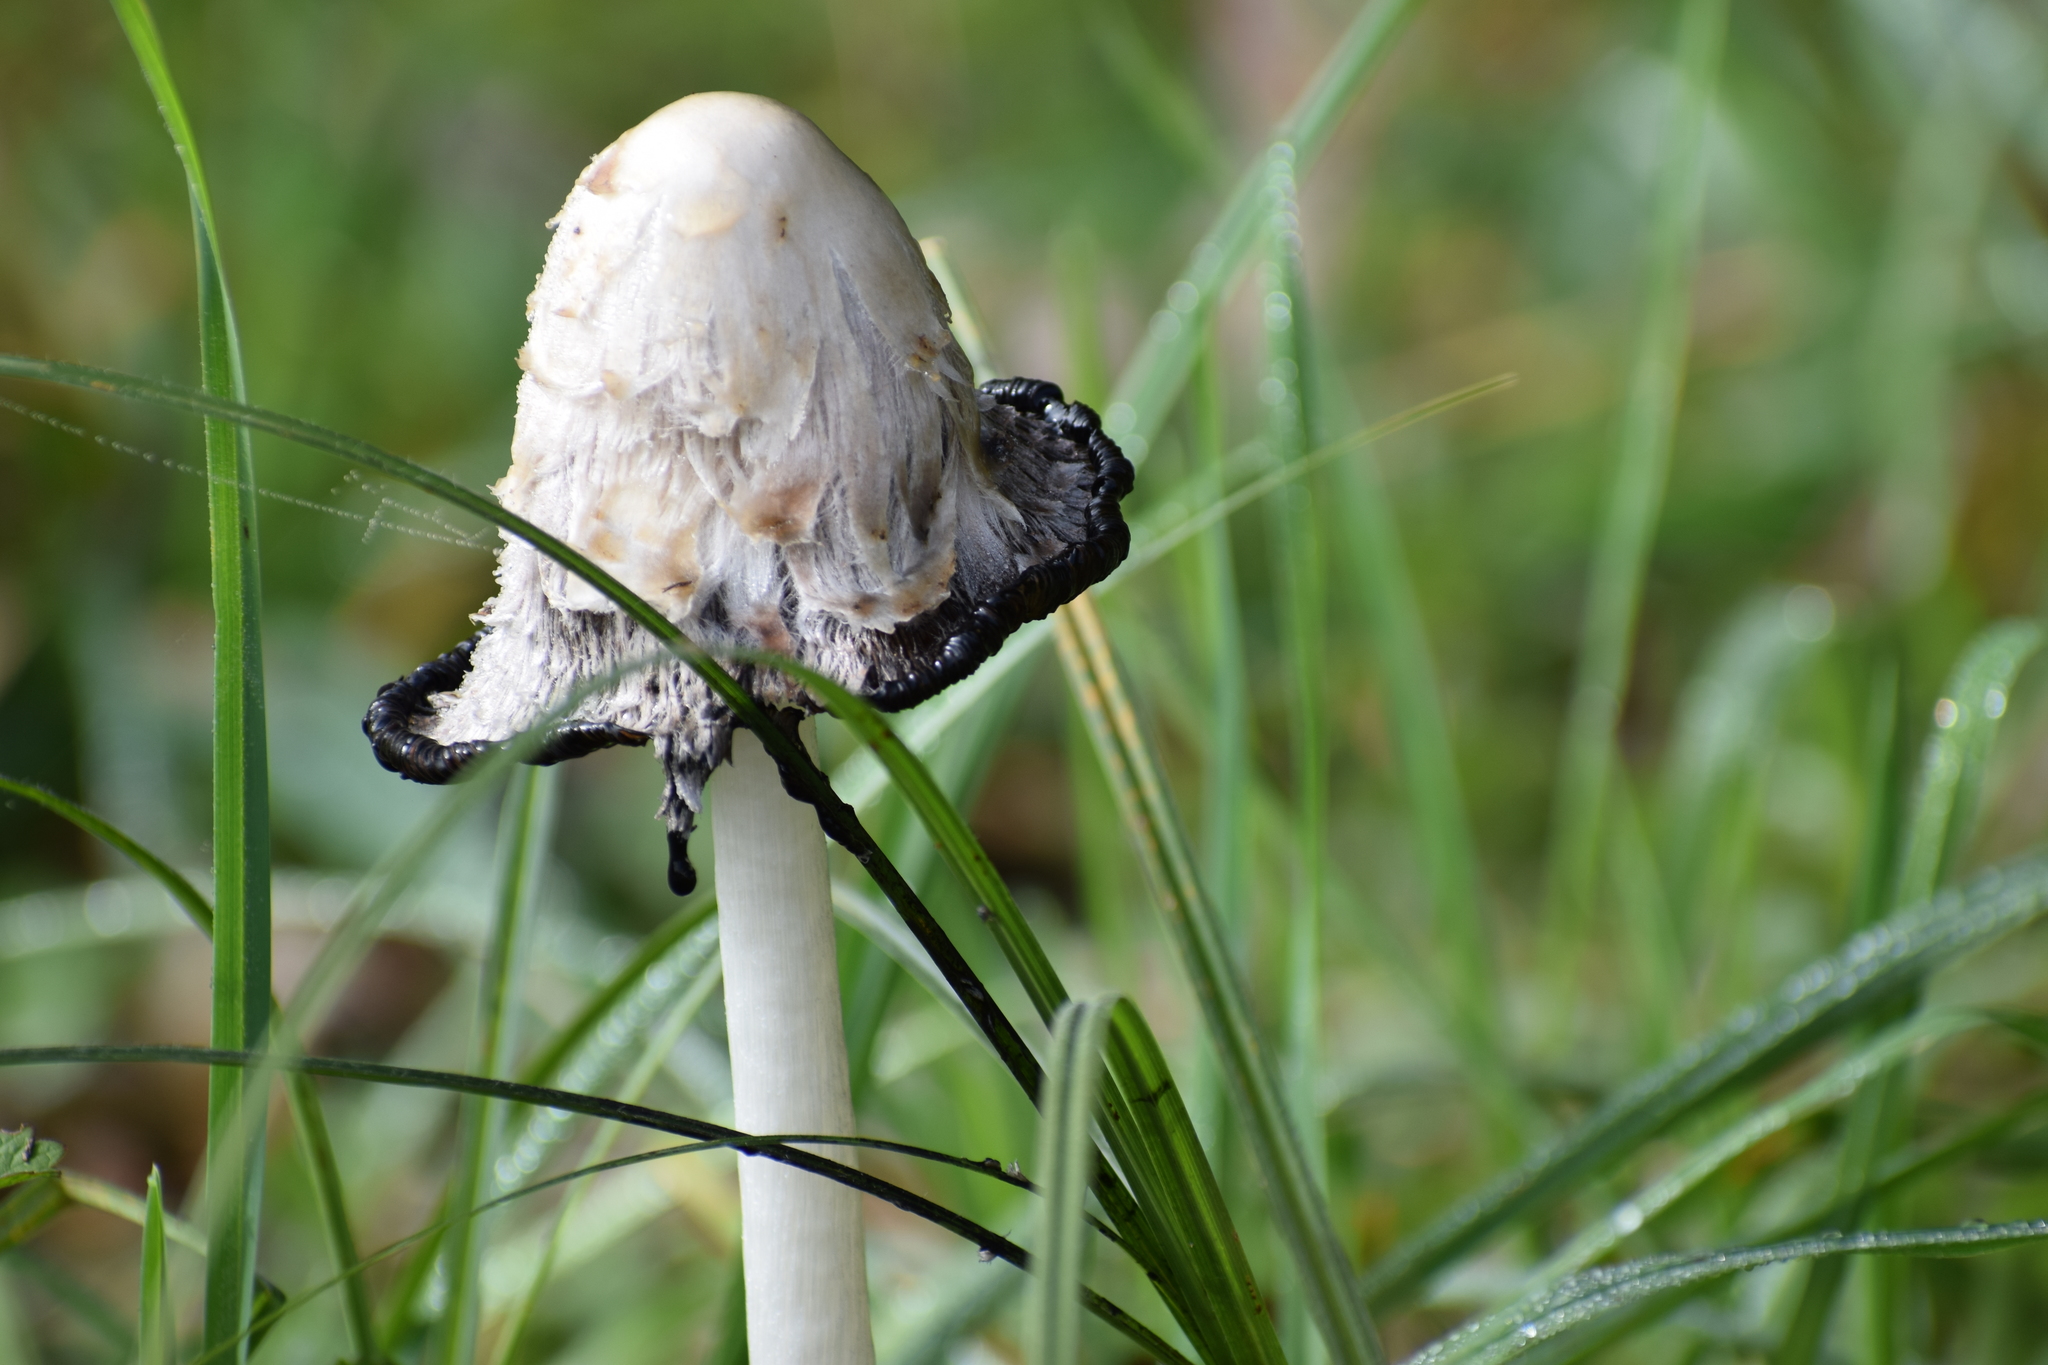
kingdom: Fungi
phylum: Basidiomycota
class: Agaricomycetes
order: Agaricales
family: Agaricaceae
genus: Coprinus
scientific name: Coprinus comatus
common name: Lawyer's wig
